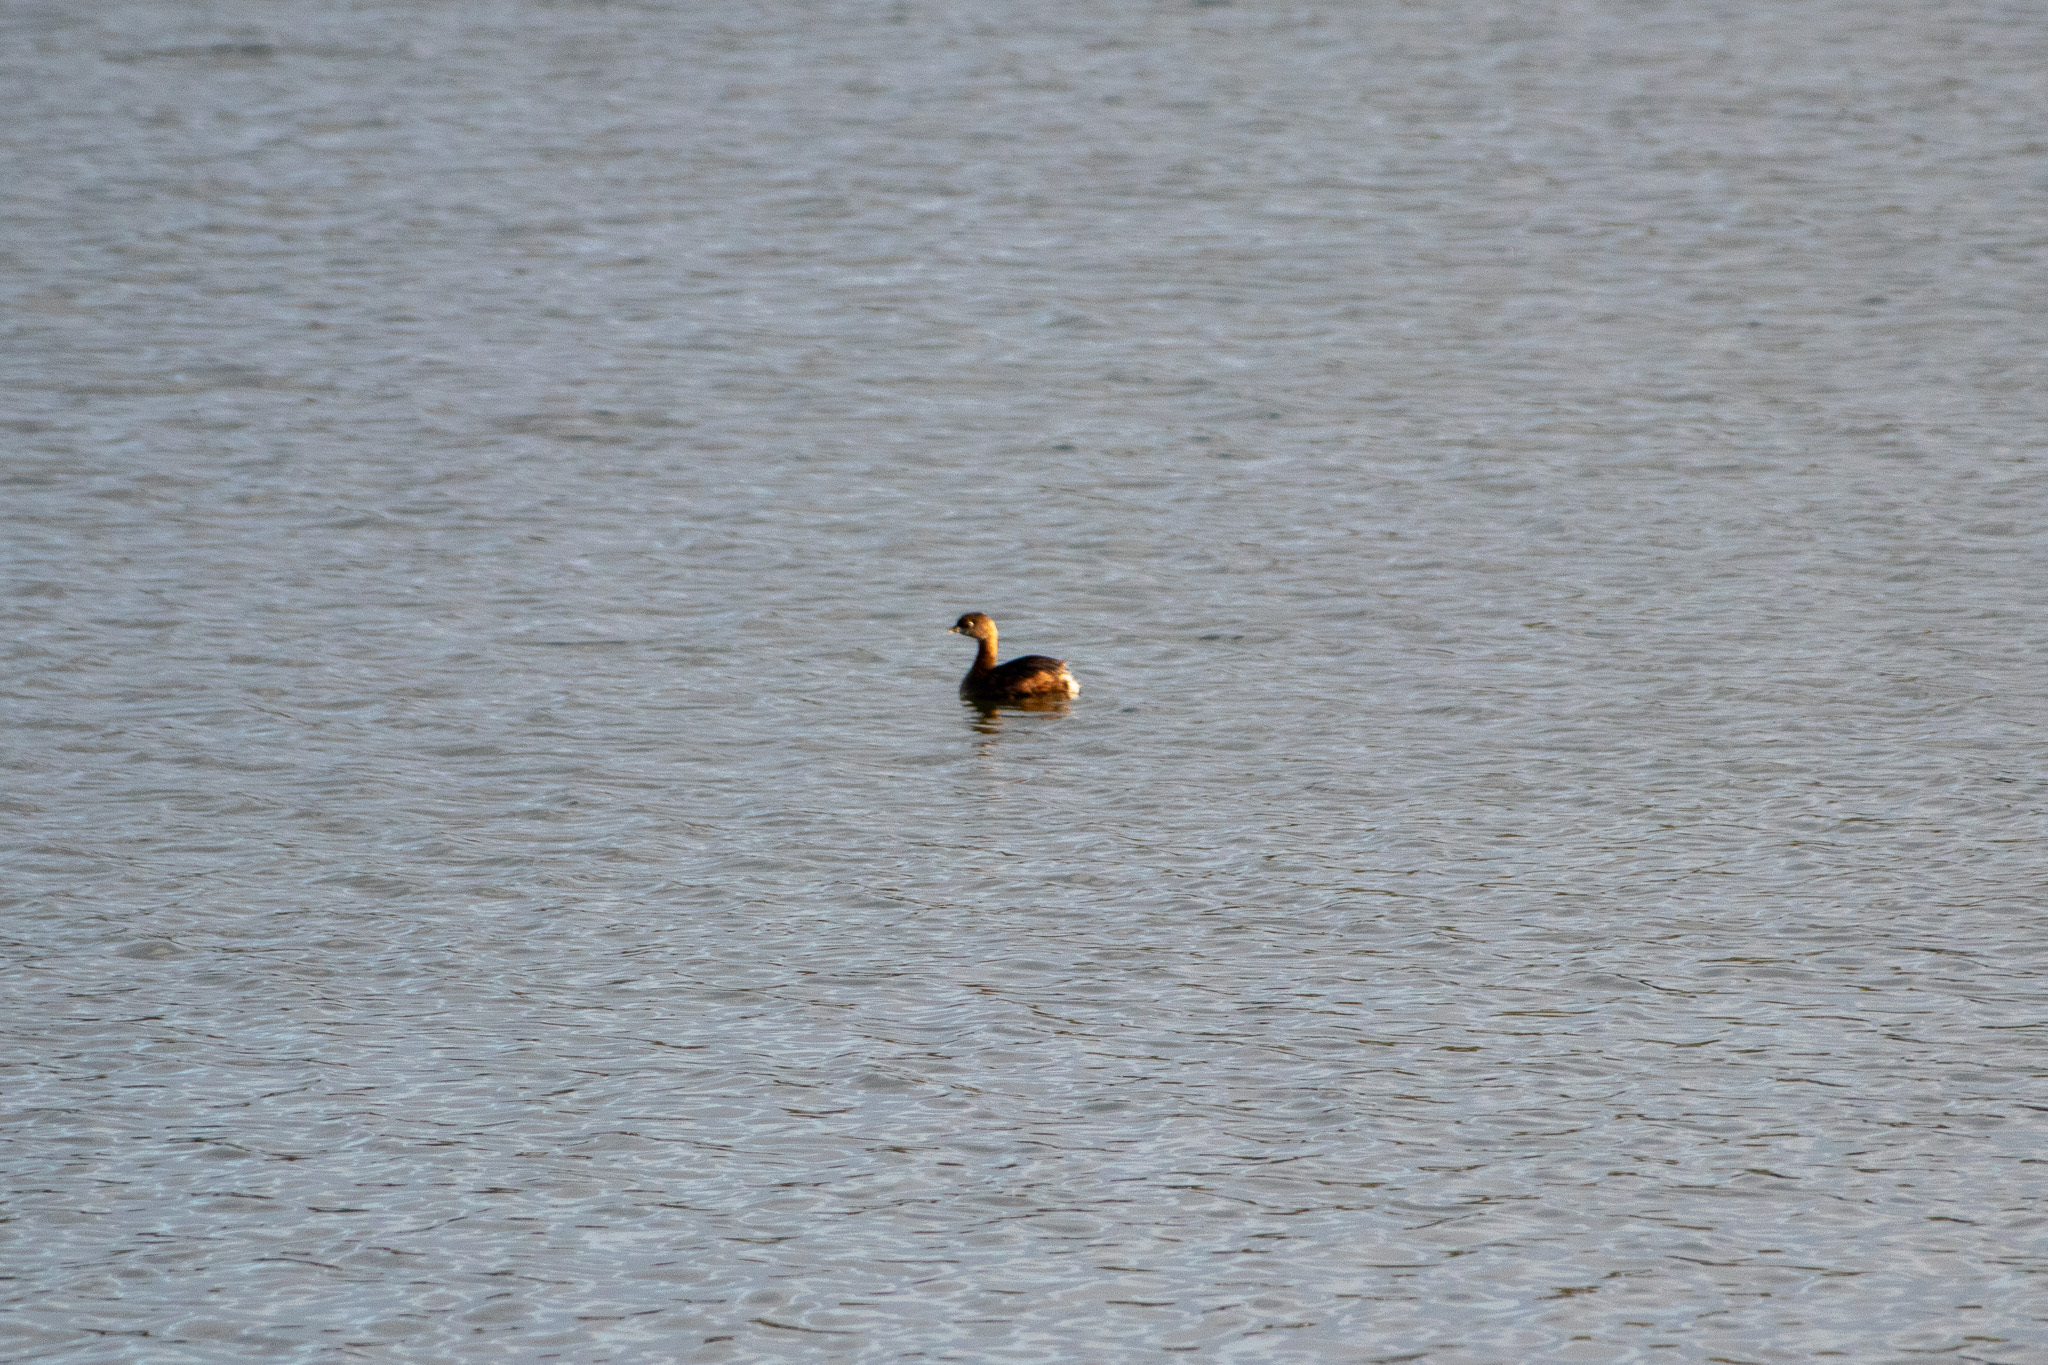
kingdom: Animalia
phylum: Chordata
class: Aves
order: Podicipediformes
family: Podicipedidae
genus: Podilymbus
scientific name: Podilymbus podiceps
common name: Pied-billed grebe
